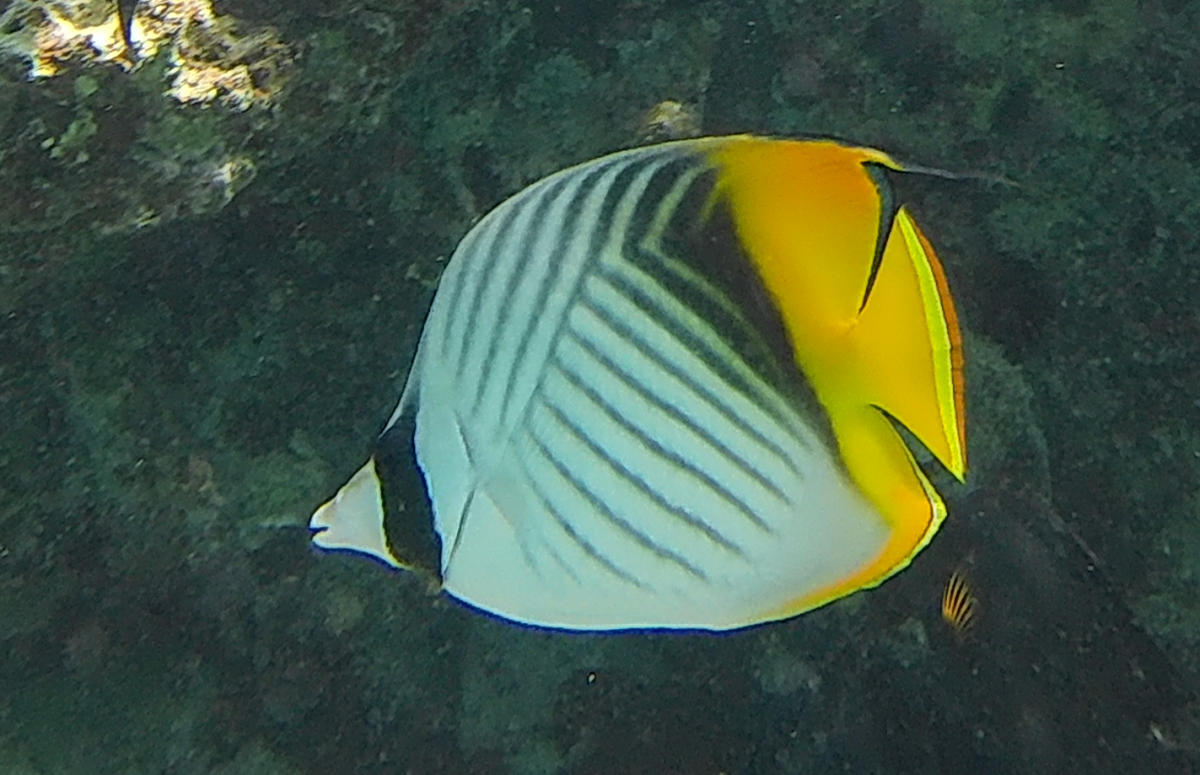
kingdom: Animalia
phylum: Chordata
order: Perciformes
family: Chaetodontidae
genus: Chaetodon
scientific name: Chaetodon auriga
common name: Threadfin butterflyfish
